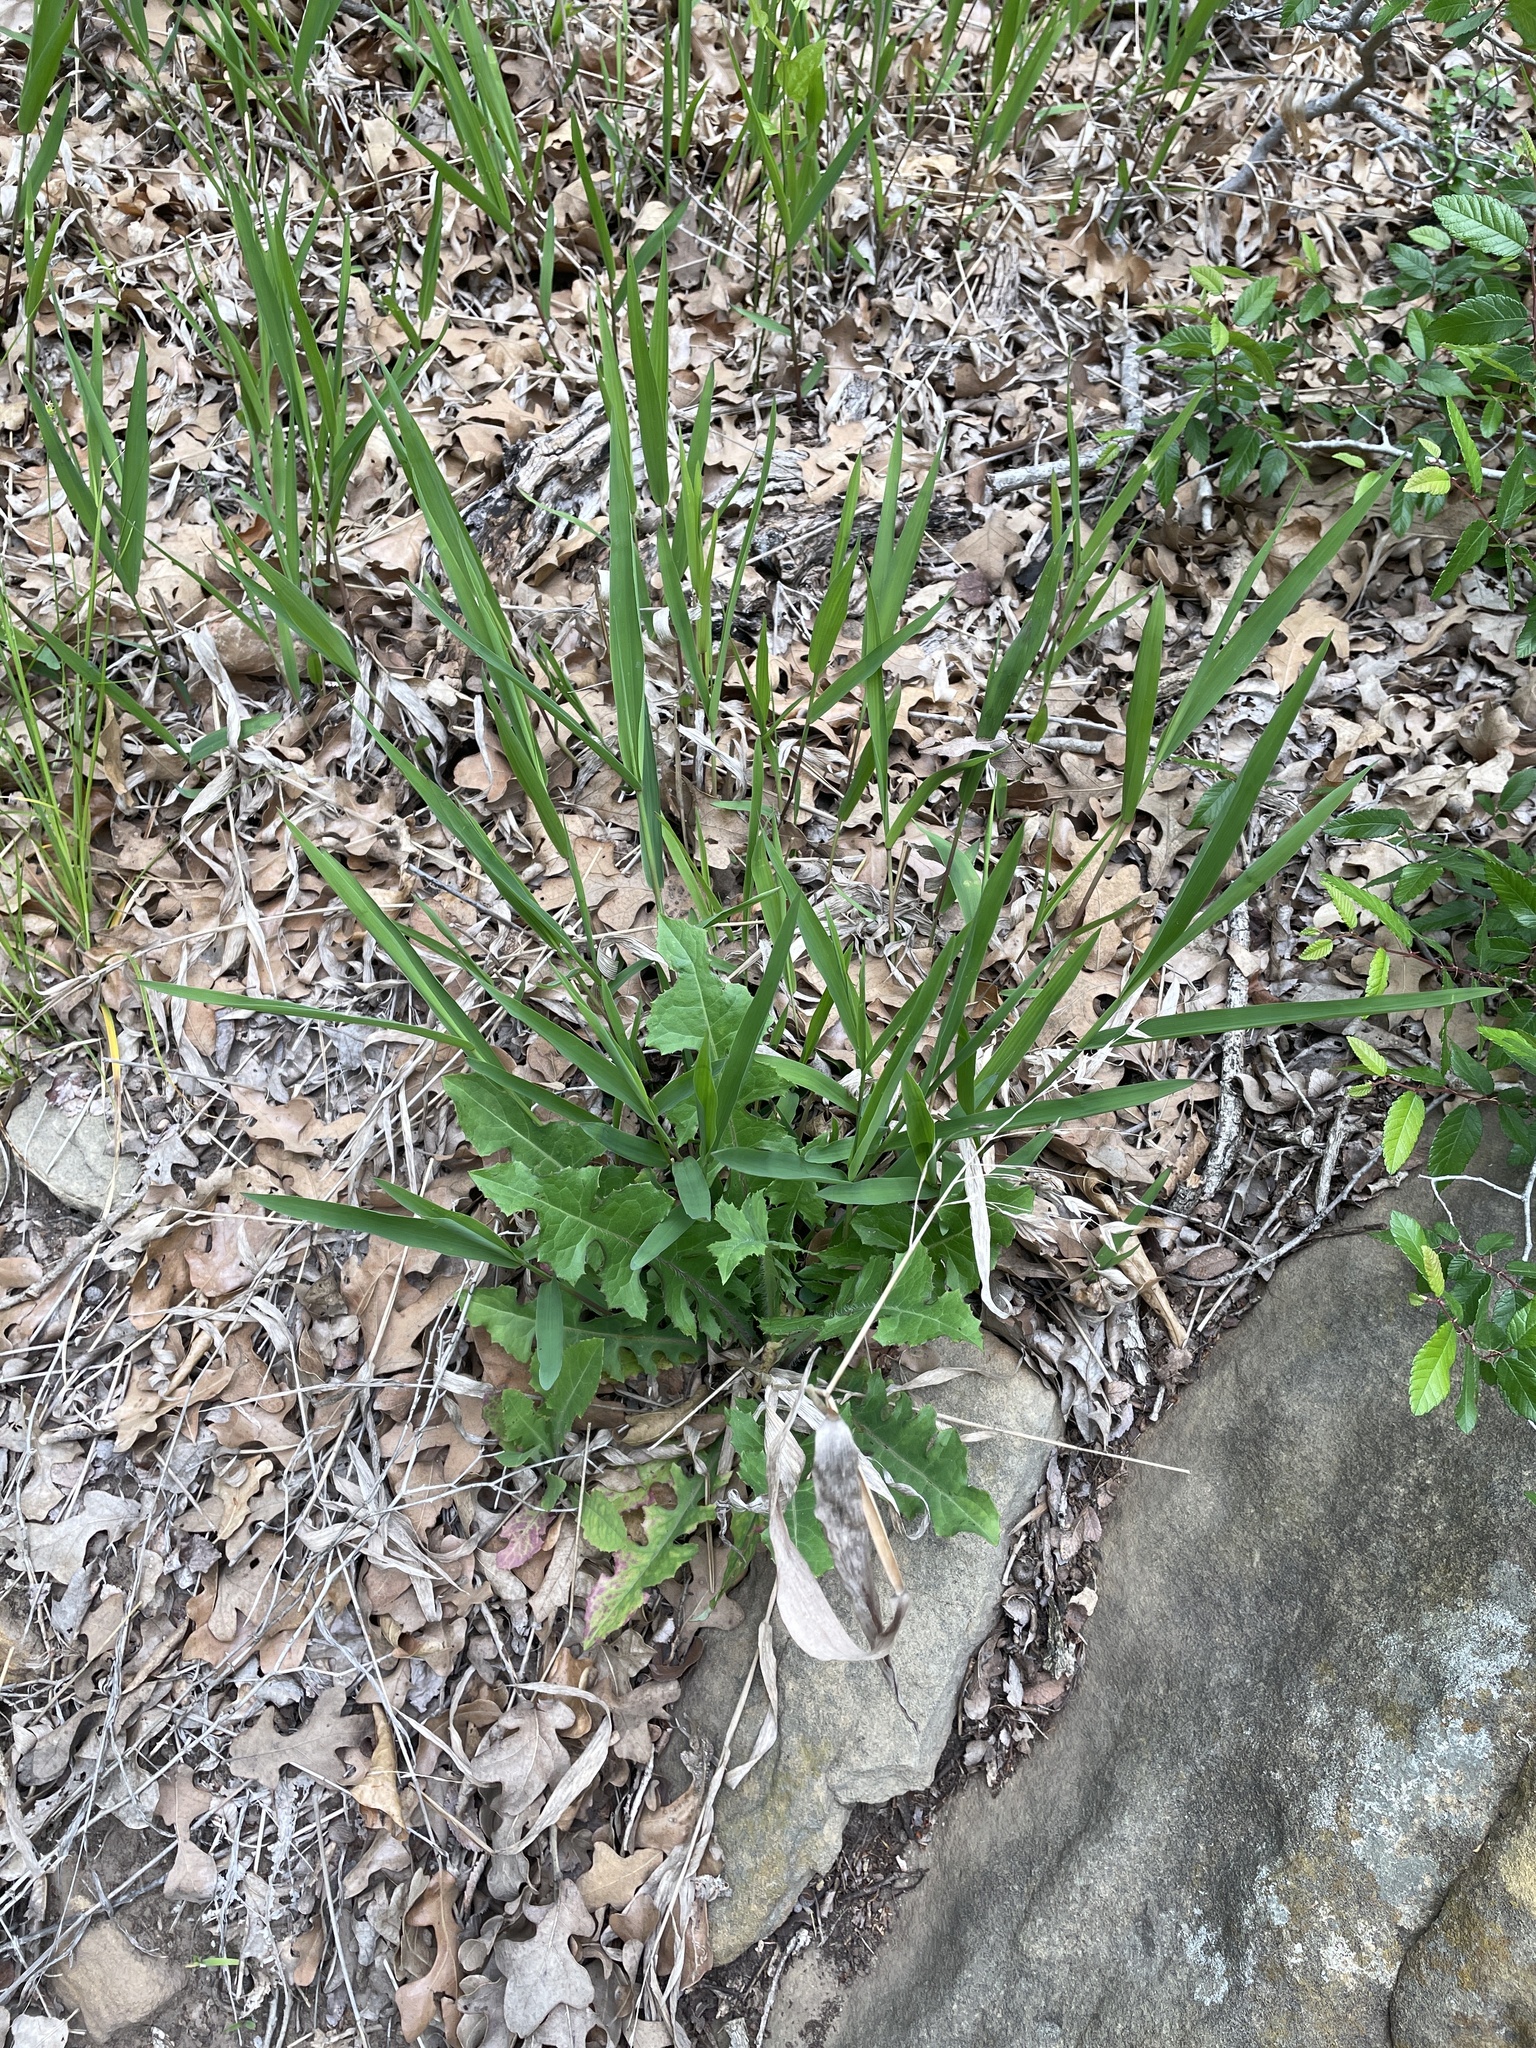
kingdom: Plantae
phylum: Tracheophyta
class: Liliopsida
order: Poales
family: Poaceae
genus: Chasmanthium
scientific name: Chasmanthium latifolium
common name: Broad-leaved chasmanthium
